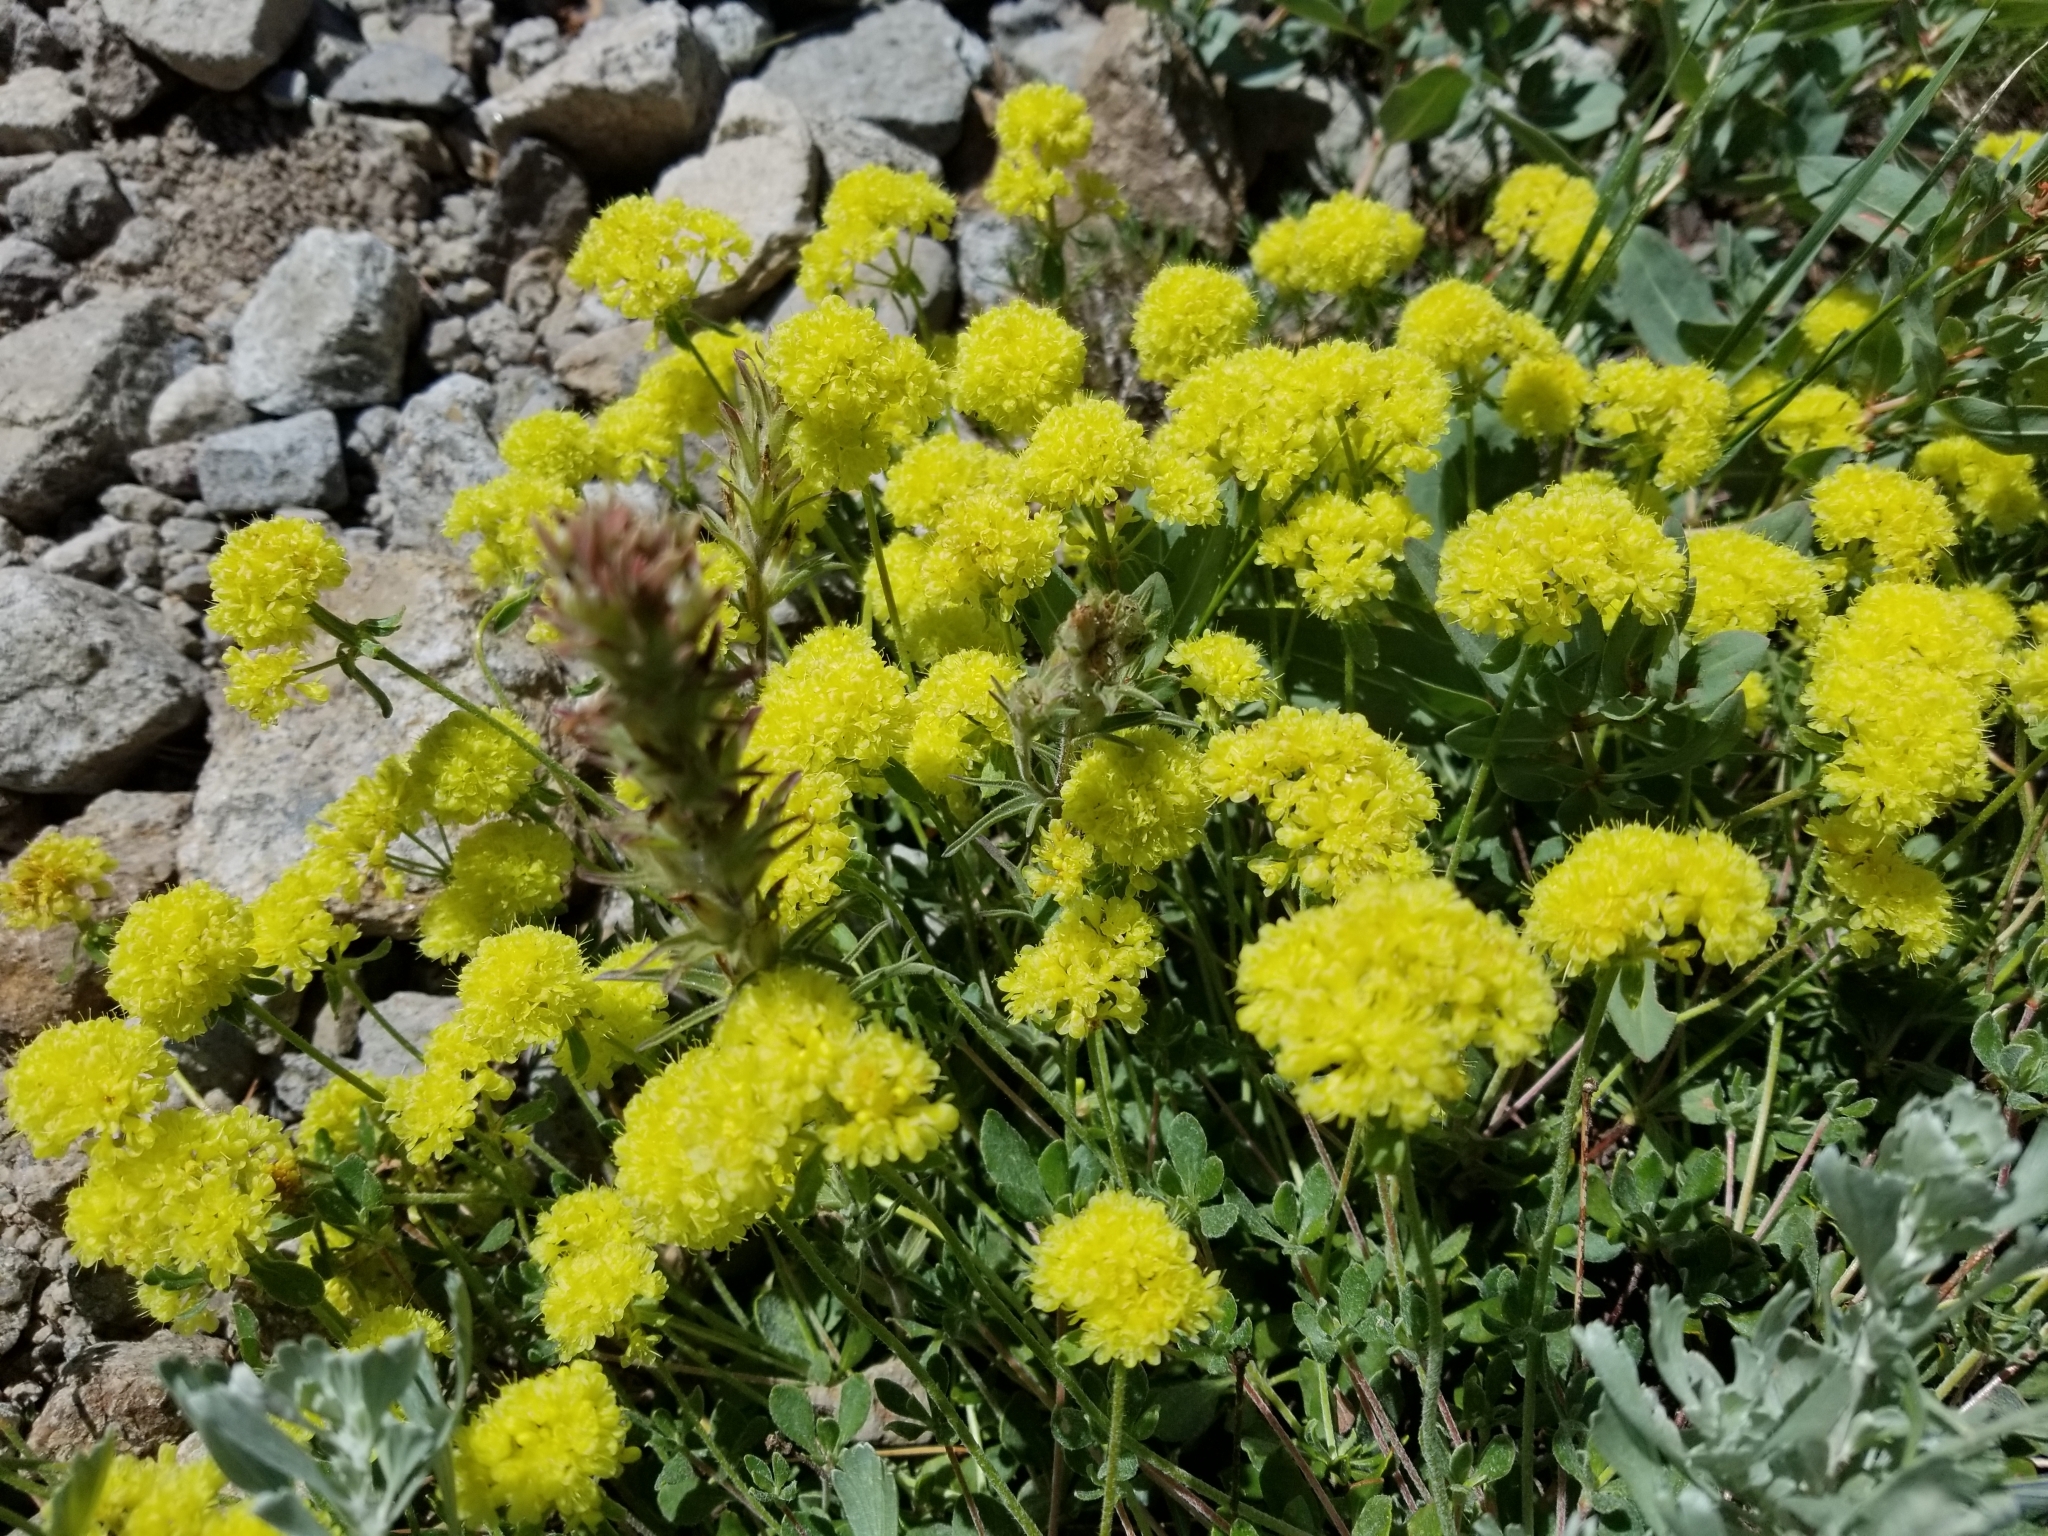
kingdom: Plantae
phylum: Tracheophyta
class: Magnoliopsida
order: Caryophyllales
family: Polygonaceae
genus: Eriogonum
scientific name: Eriogonum umbellatum
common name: Sulfur-buckwheat
